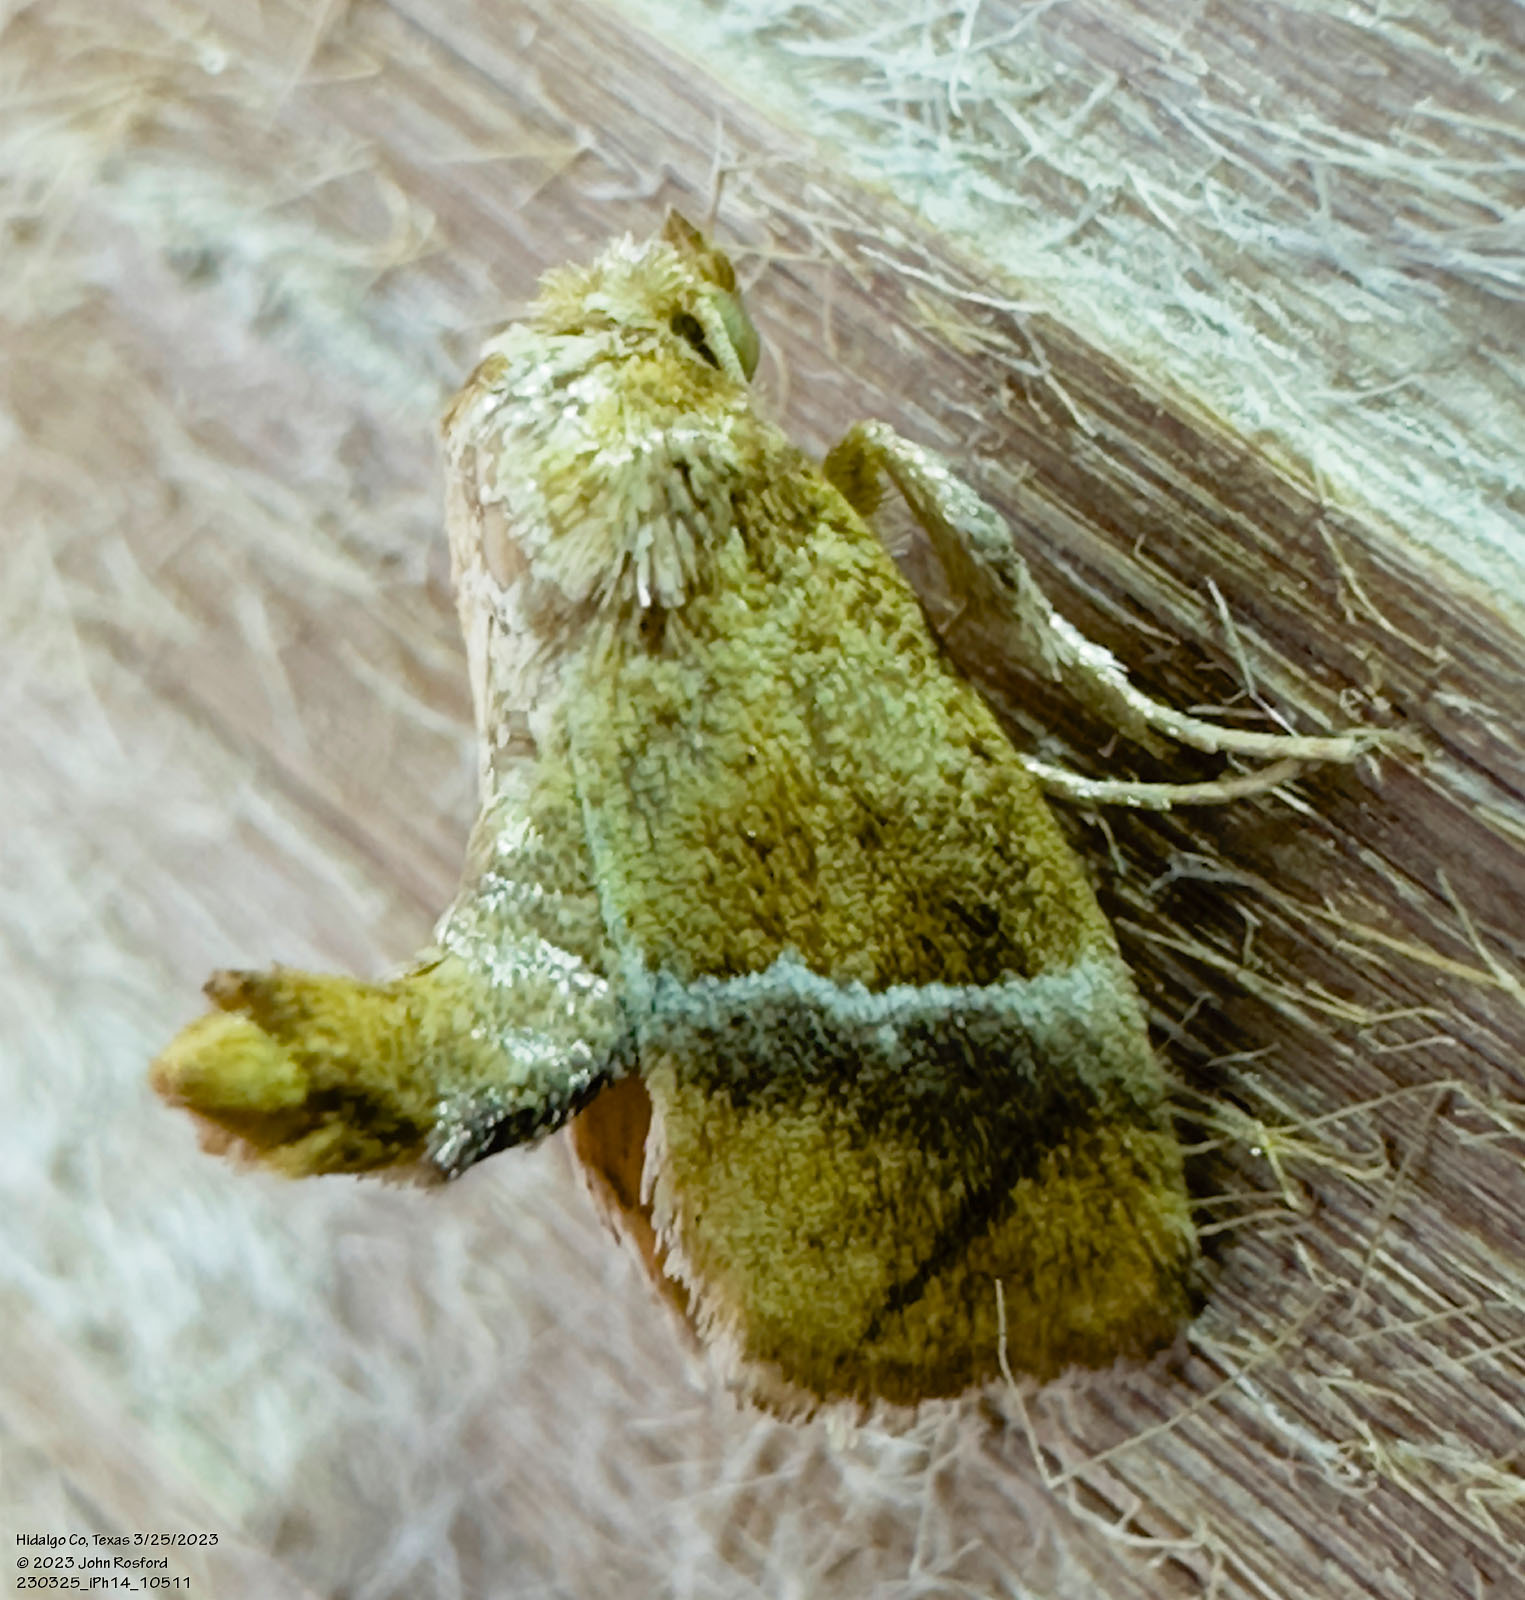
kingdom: Animalia
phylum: Arthropoda
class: Insecta
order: Lepidoptera
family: Limacodidae
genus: Lithacodes
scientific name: Lithacodes fasciola
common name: Yellow-shouldered slug moth
